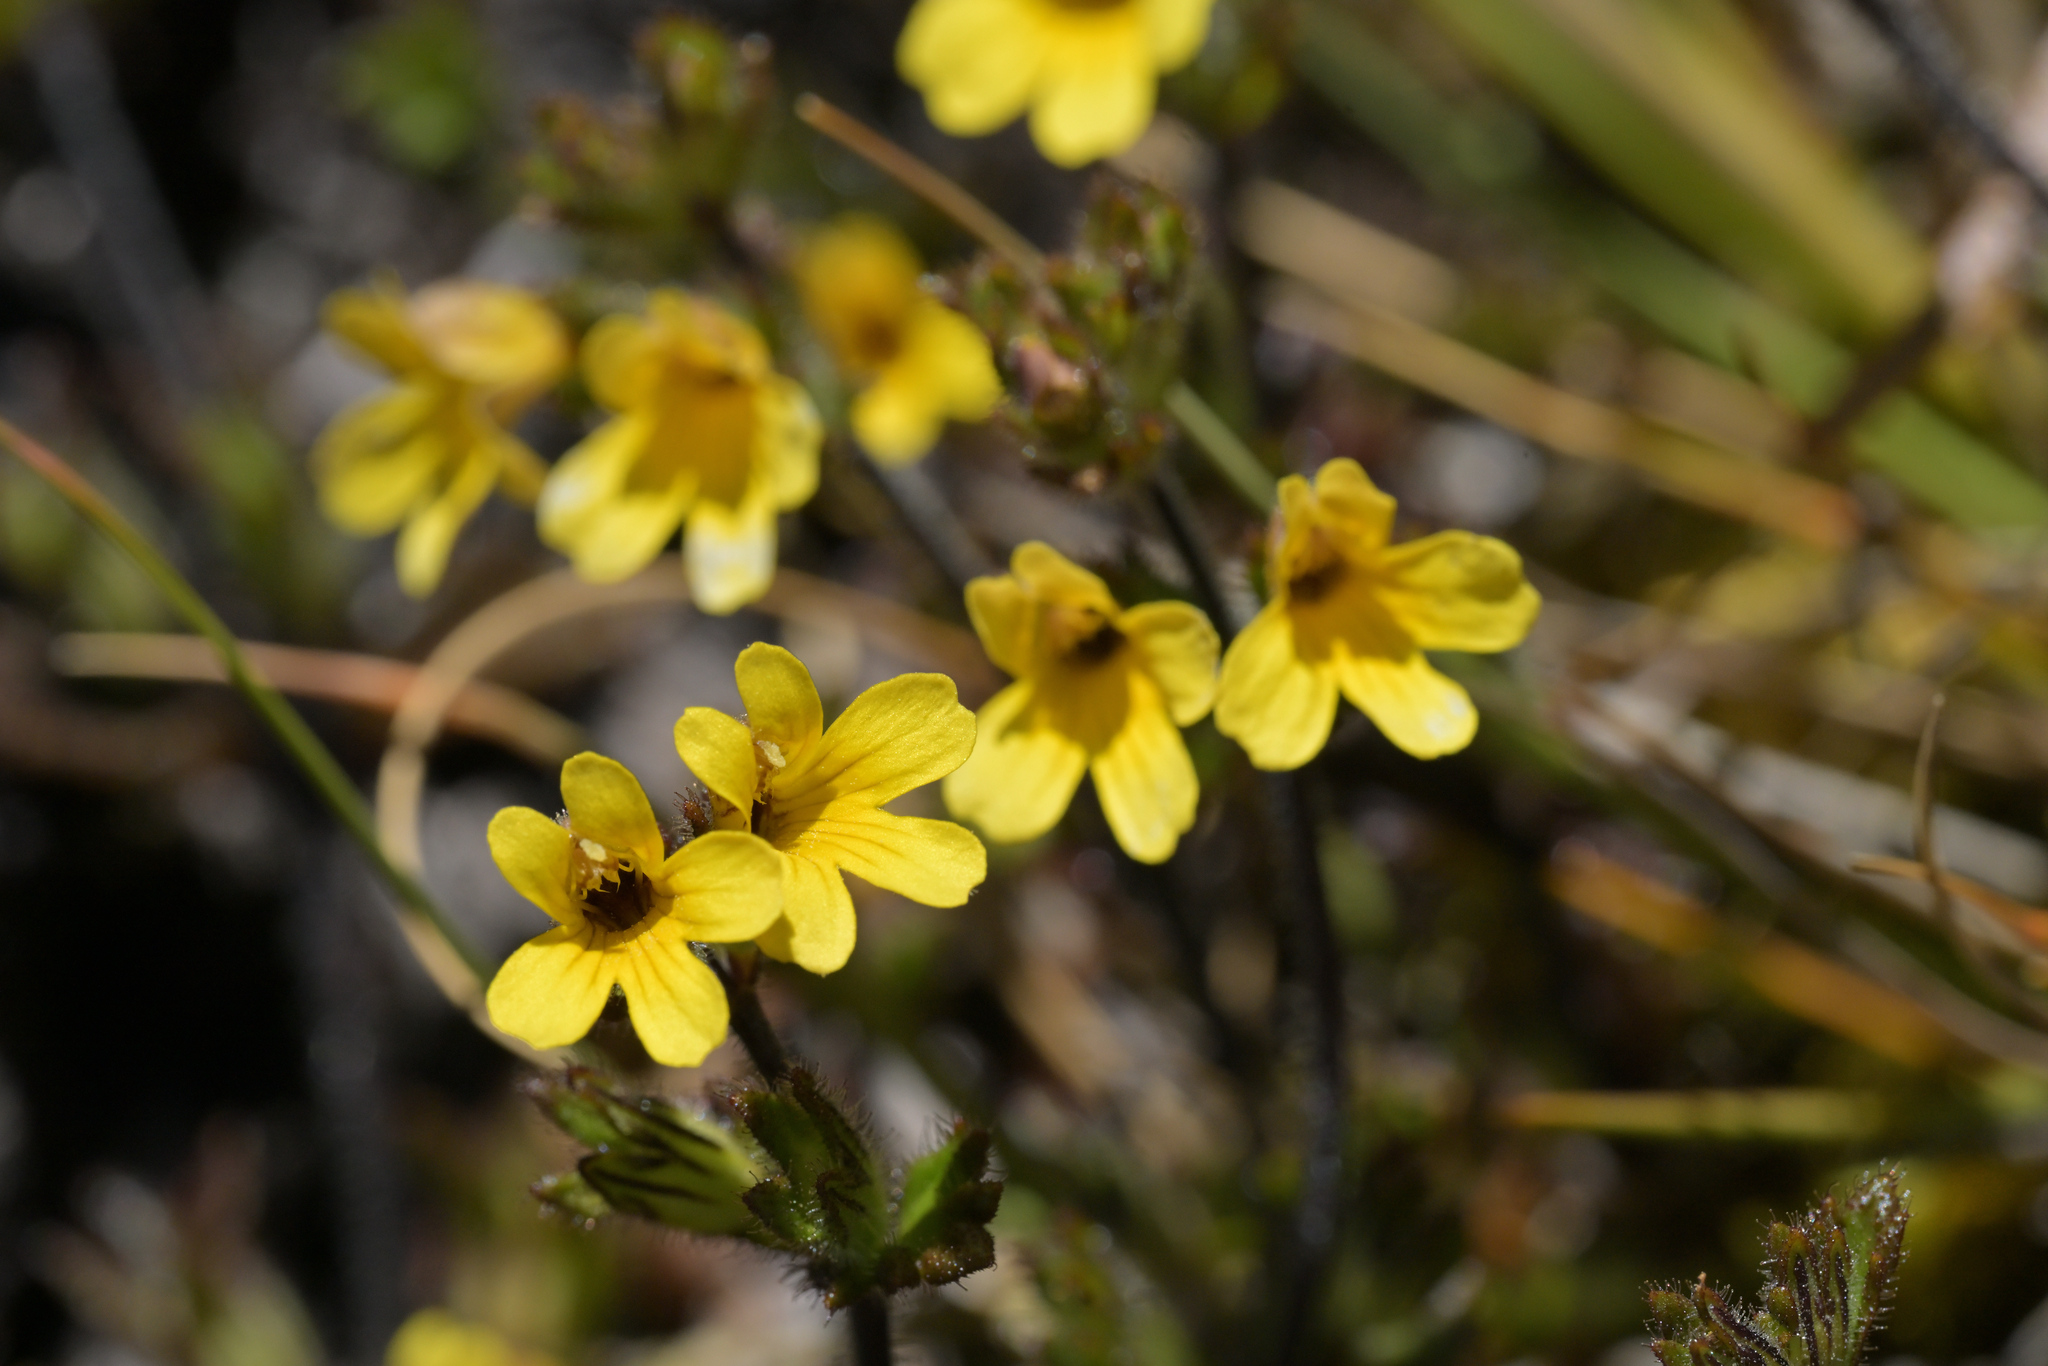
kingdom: Plantae
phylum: Tracheophyta
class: Magnoliopsida
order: Lamiales
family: Orobanchaceae
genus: Euphrasia
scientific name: Euphrasia cockayneana
